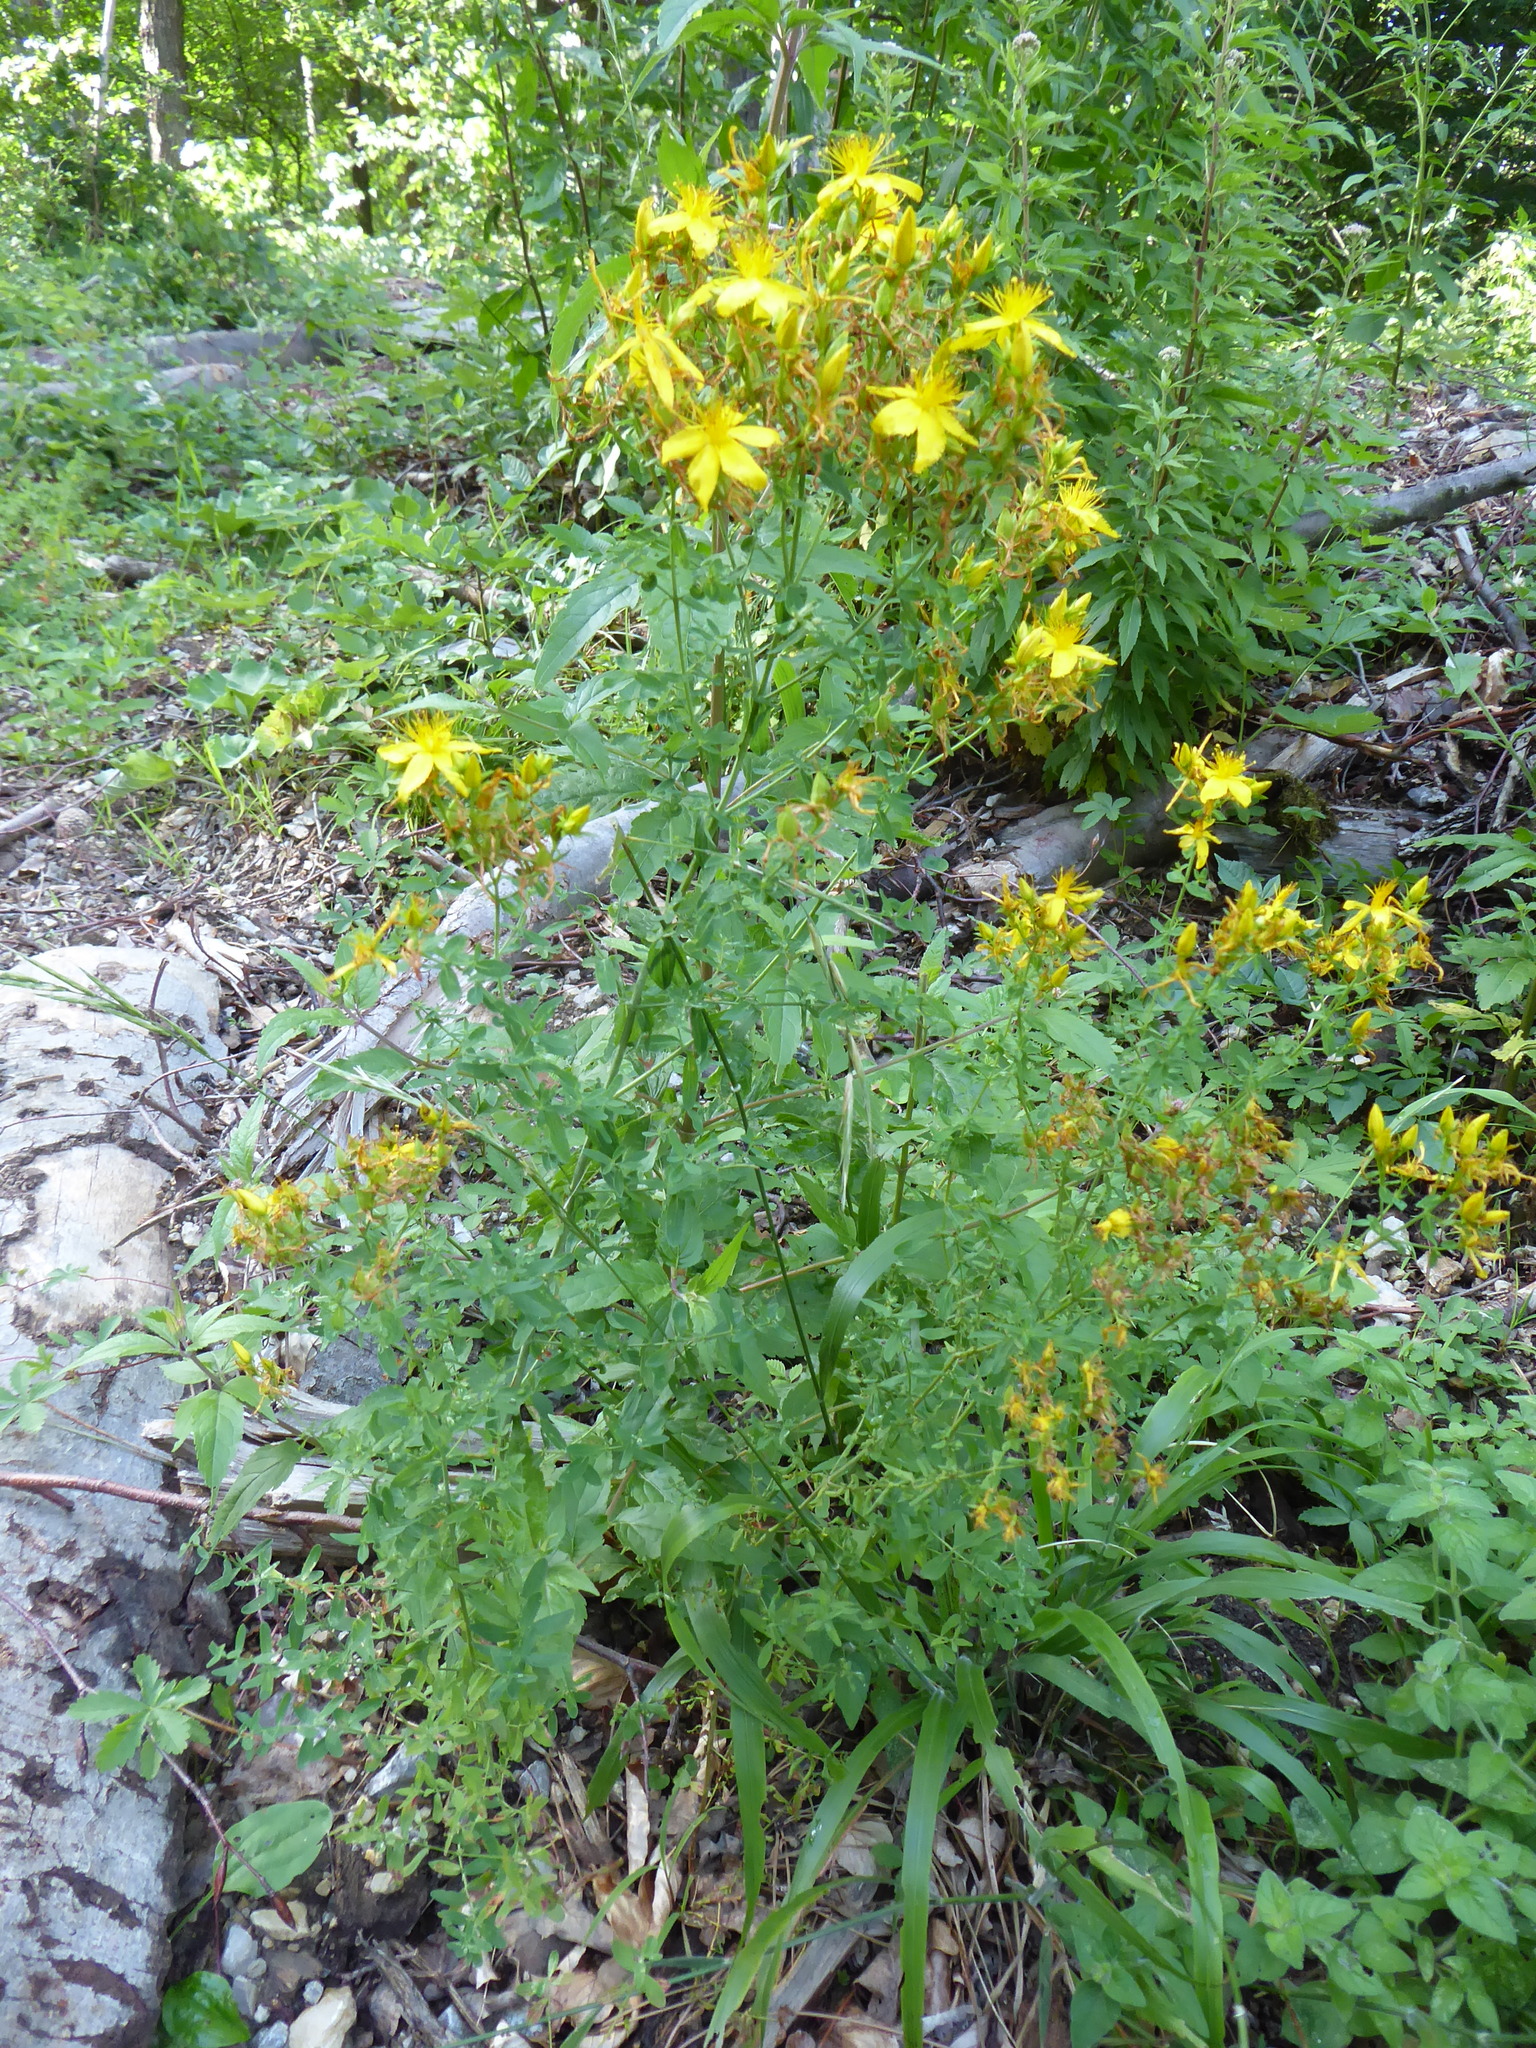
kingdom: Plantae
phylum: Tracheophyta
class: Magnoliopsida
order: Malpighiales
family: Hypericaceae
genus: Hypericum
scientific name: Hypericum perforatum
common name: Common st. johnswort
